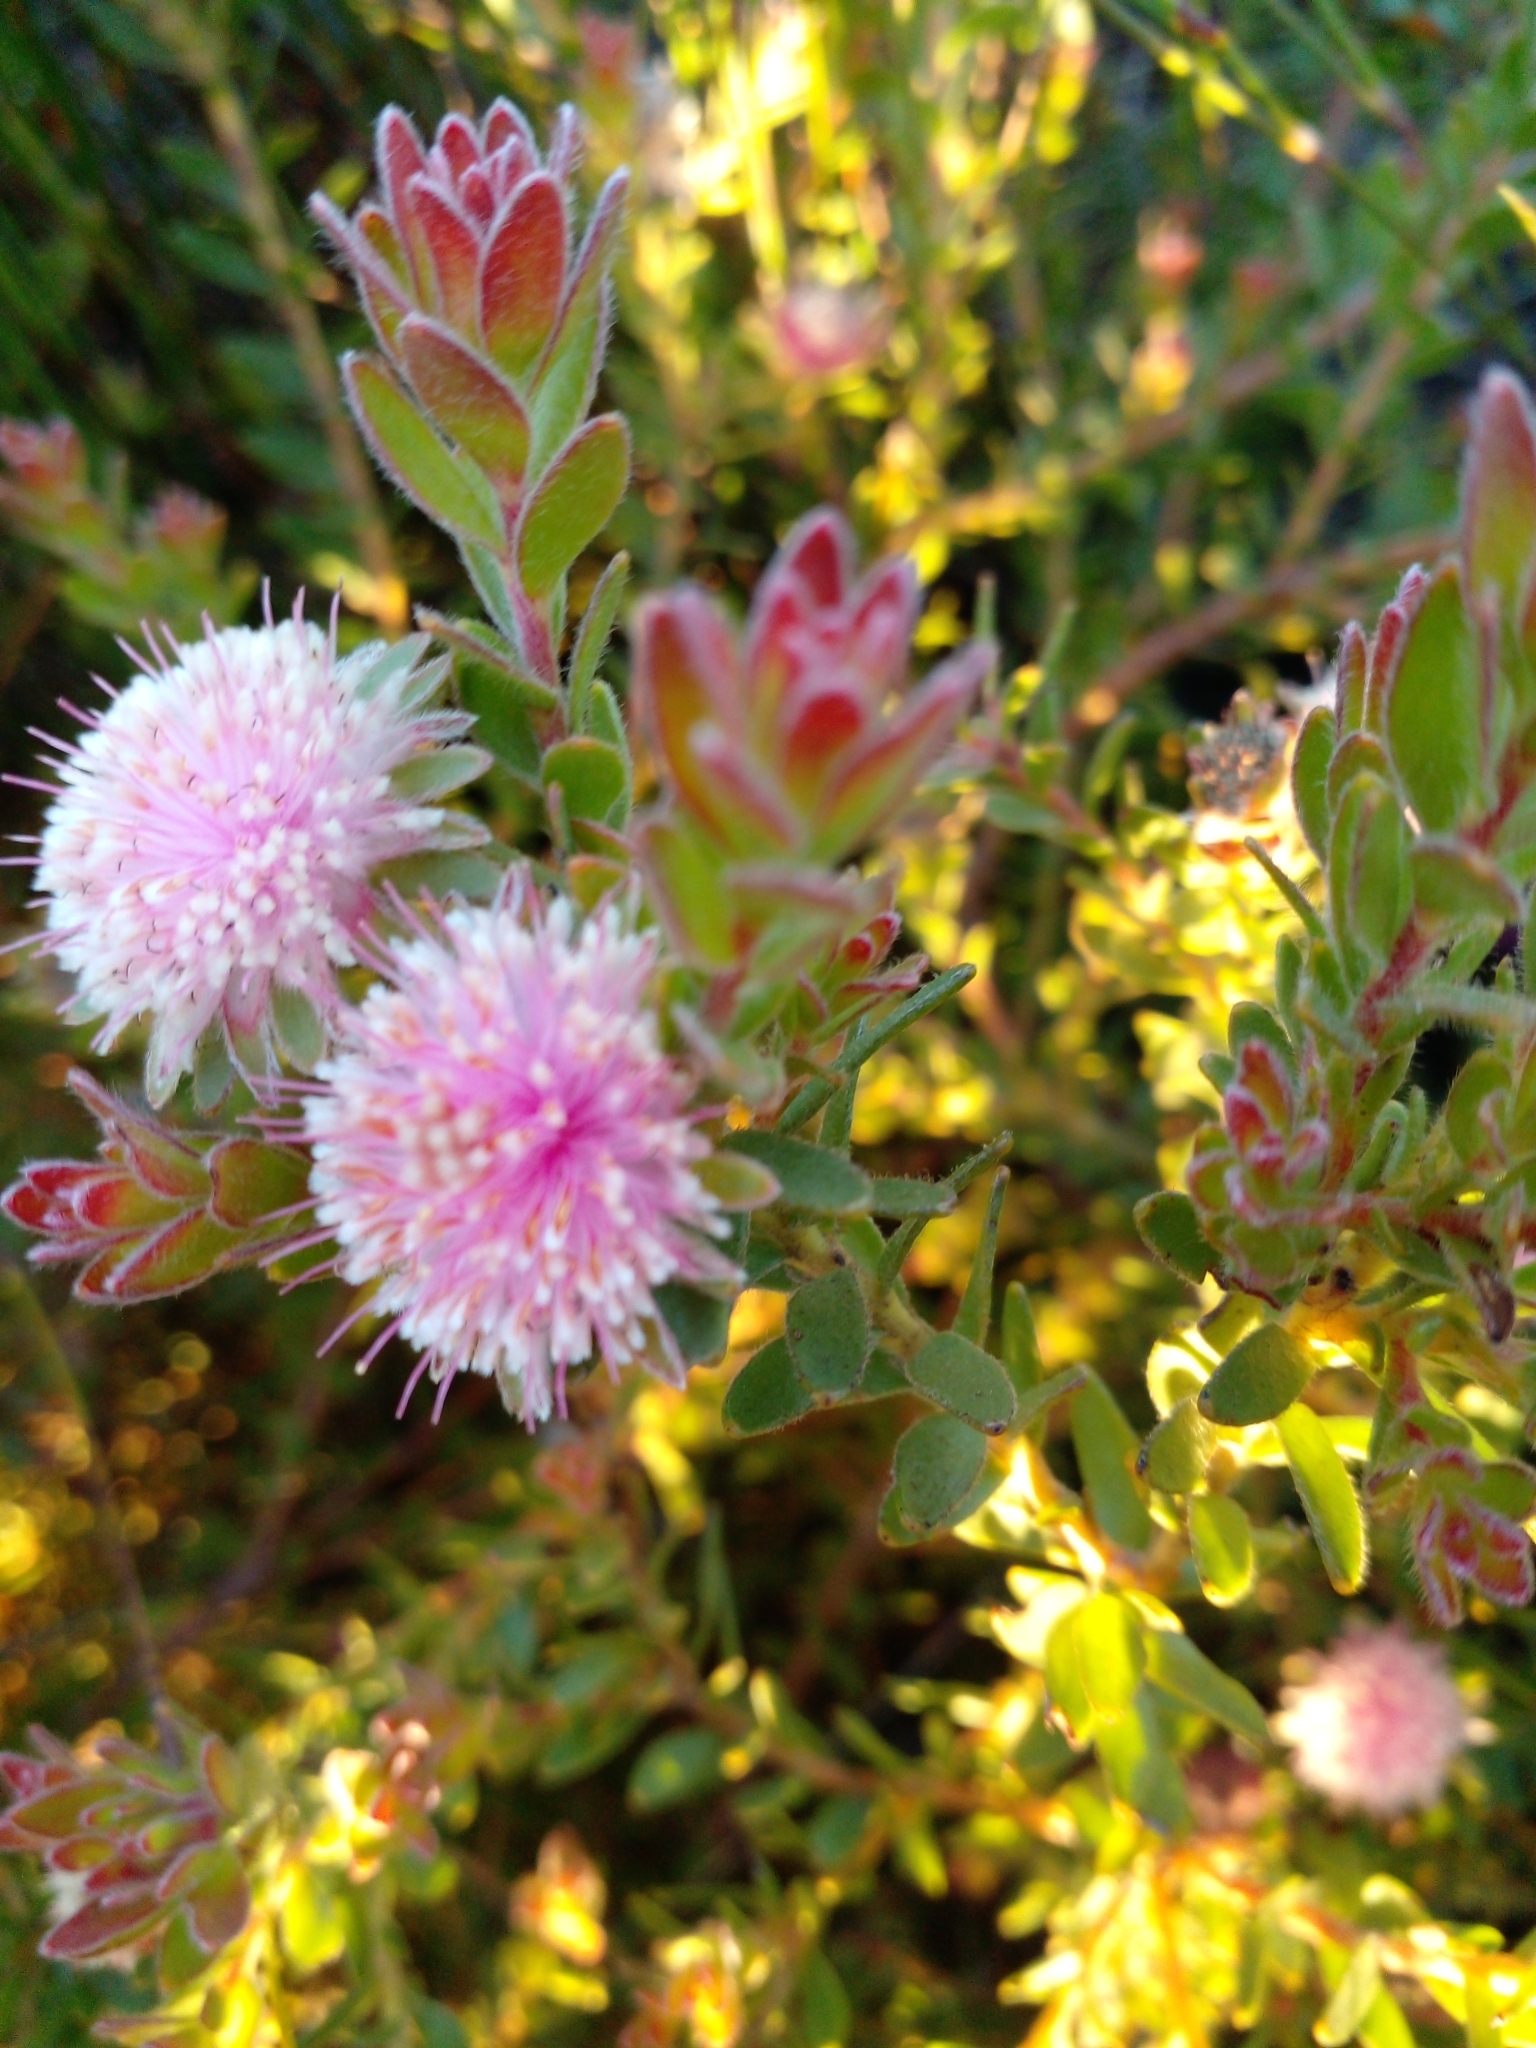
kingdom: Plantae
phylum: Tracheophyta
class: Magnoliopsida
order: Proteales
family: Proteaceae
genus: Diastella
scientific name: Diastella divaricata
